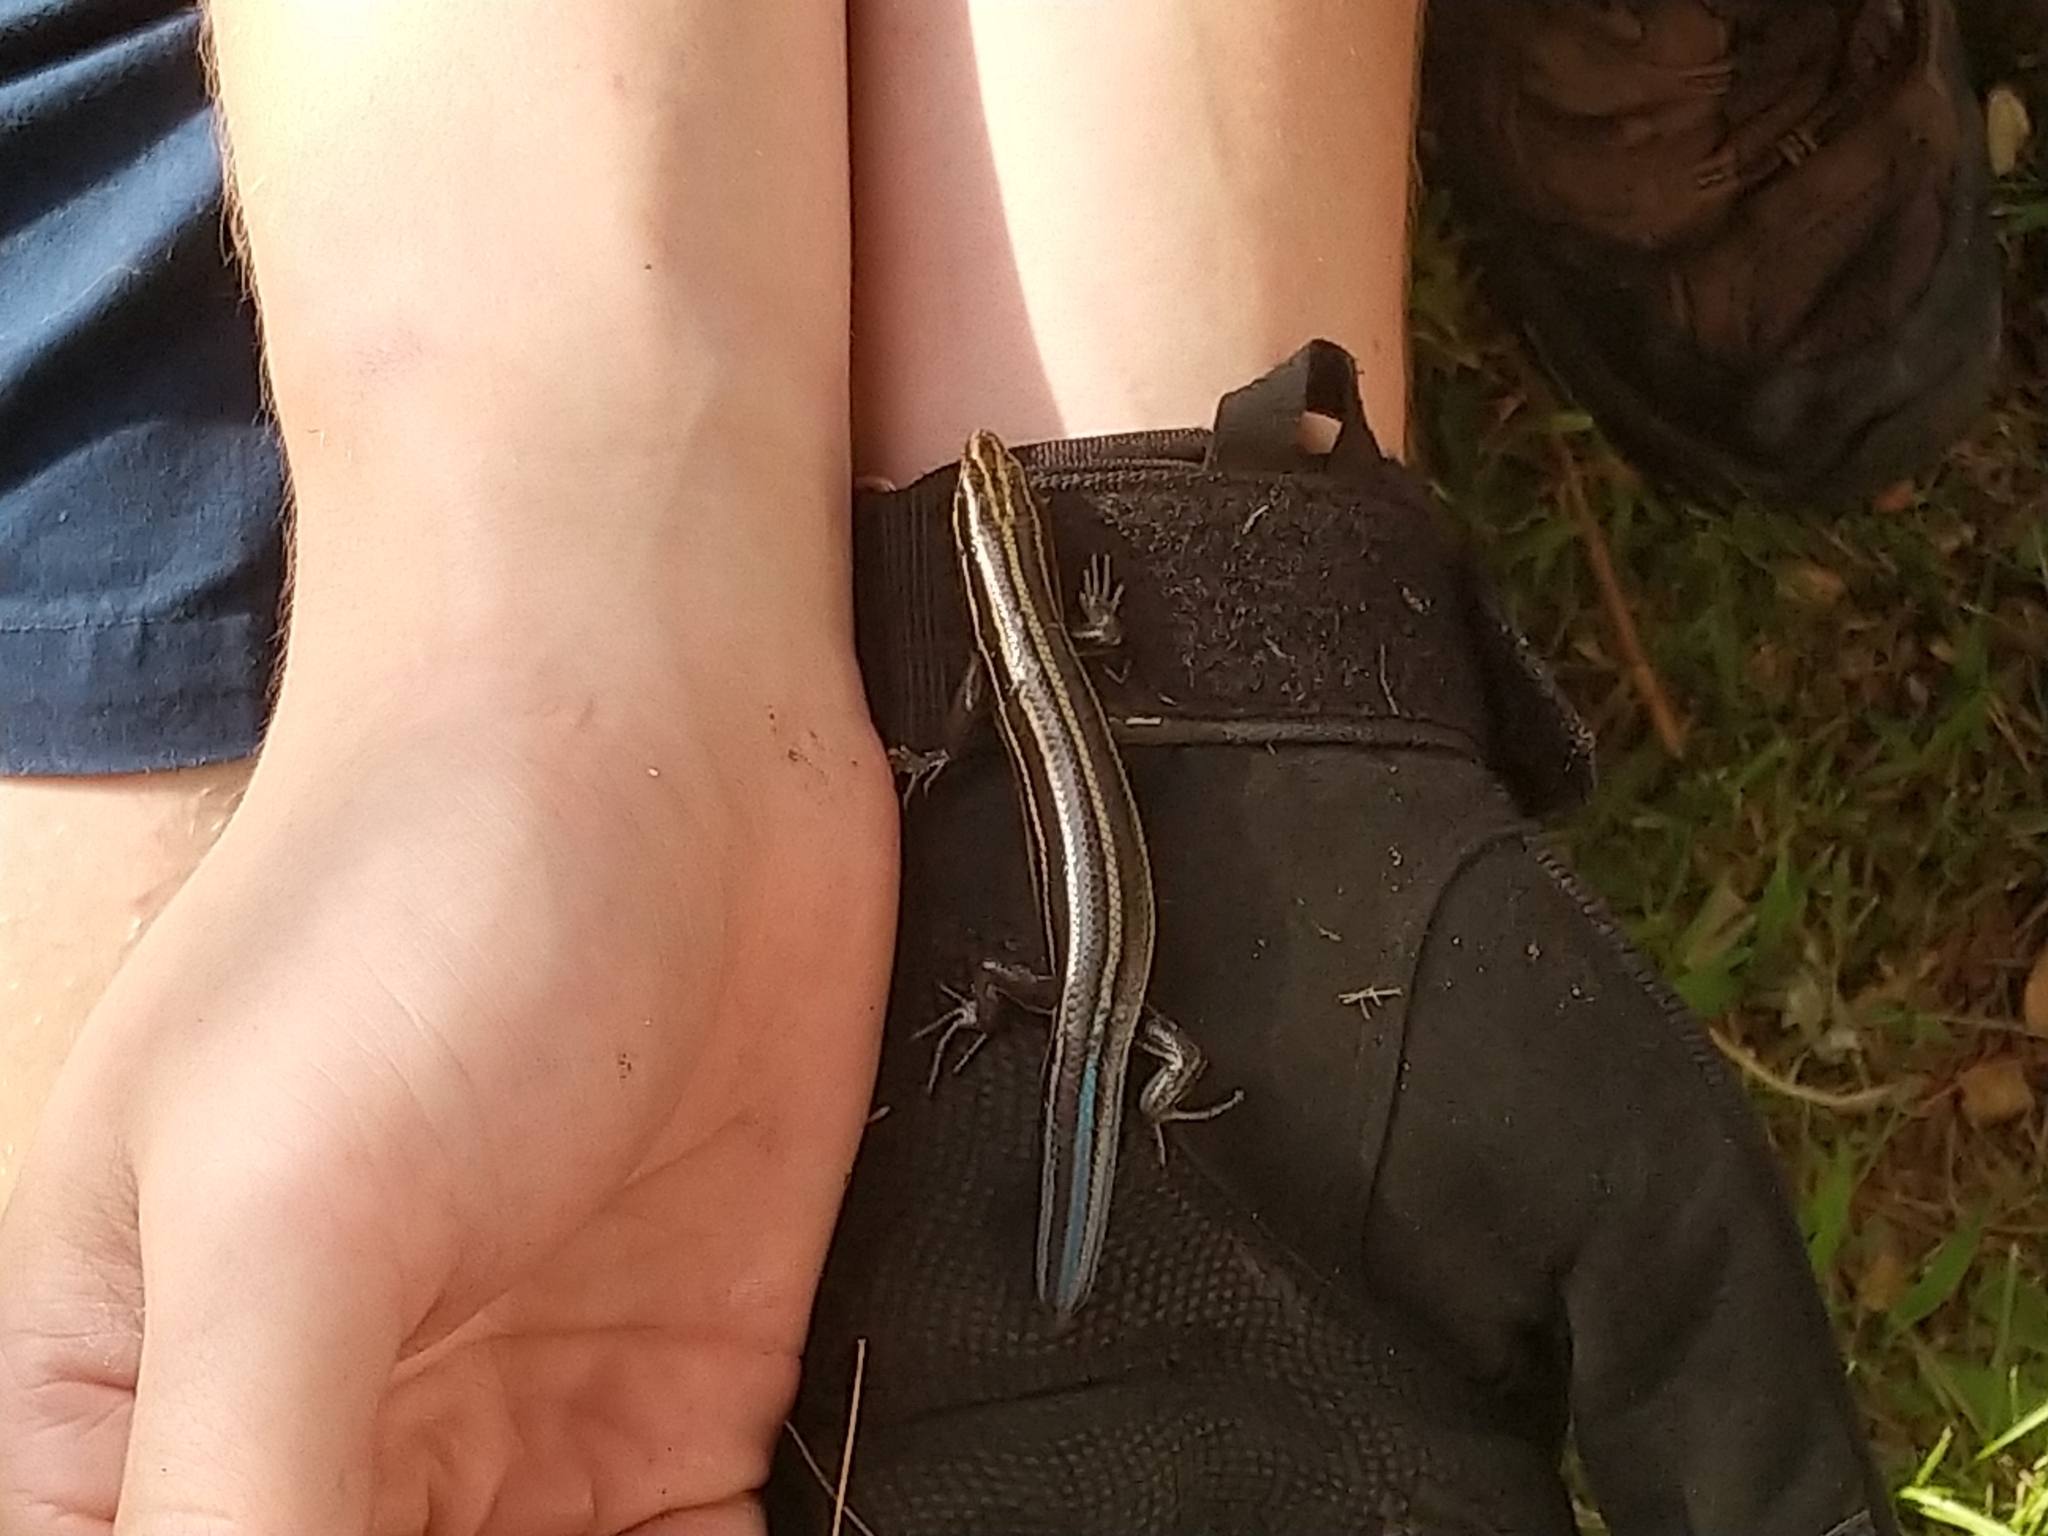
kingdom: Animalia
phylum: Chordata
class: Squamata
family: Scincidae
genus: Plestiodon
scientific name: Plestiodon fasciatus
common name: Five-lined skink
